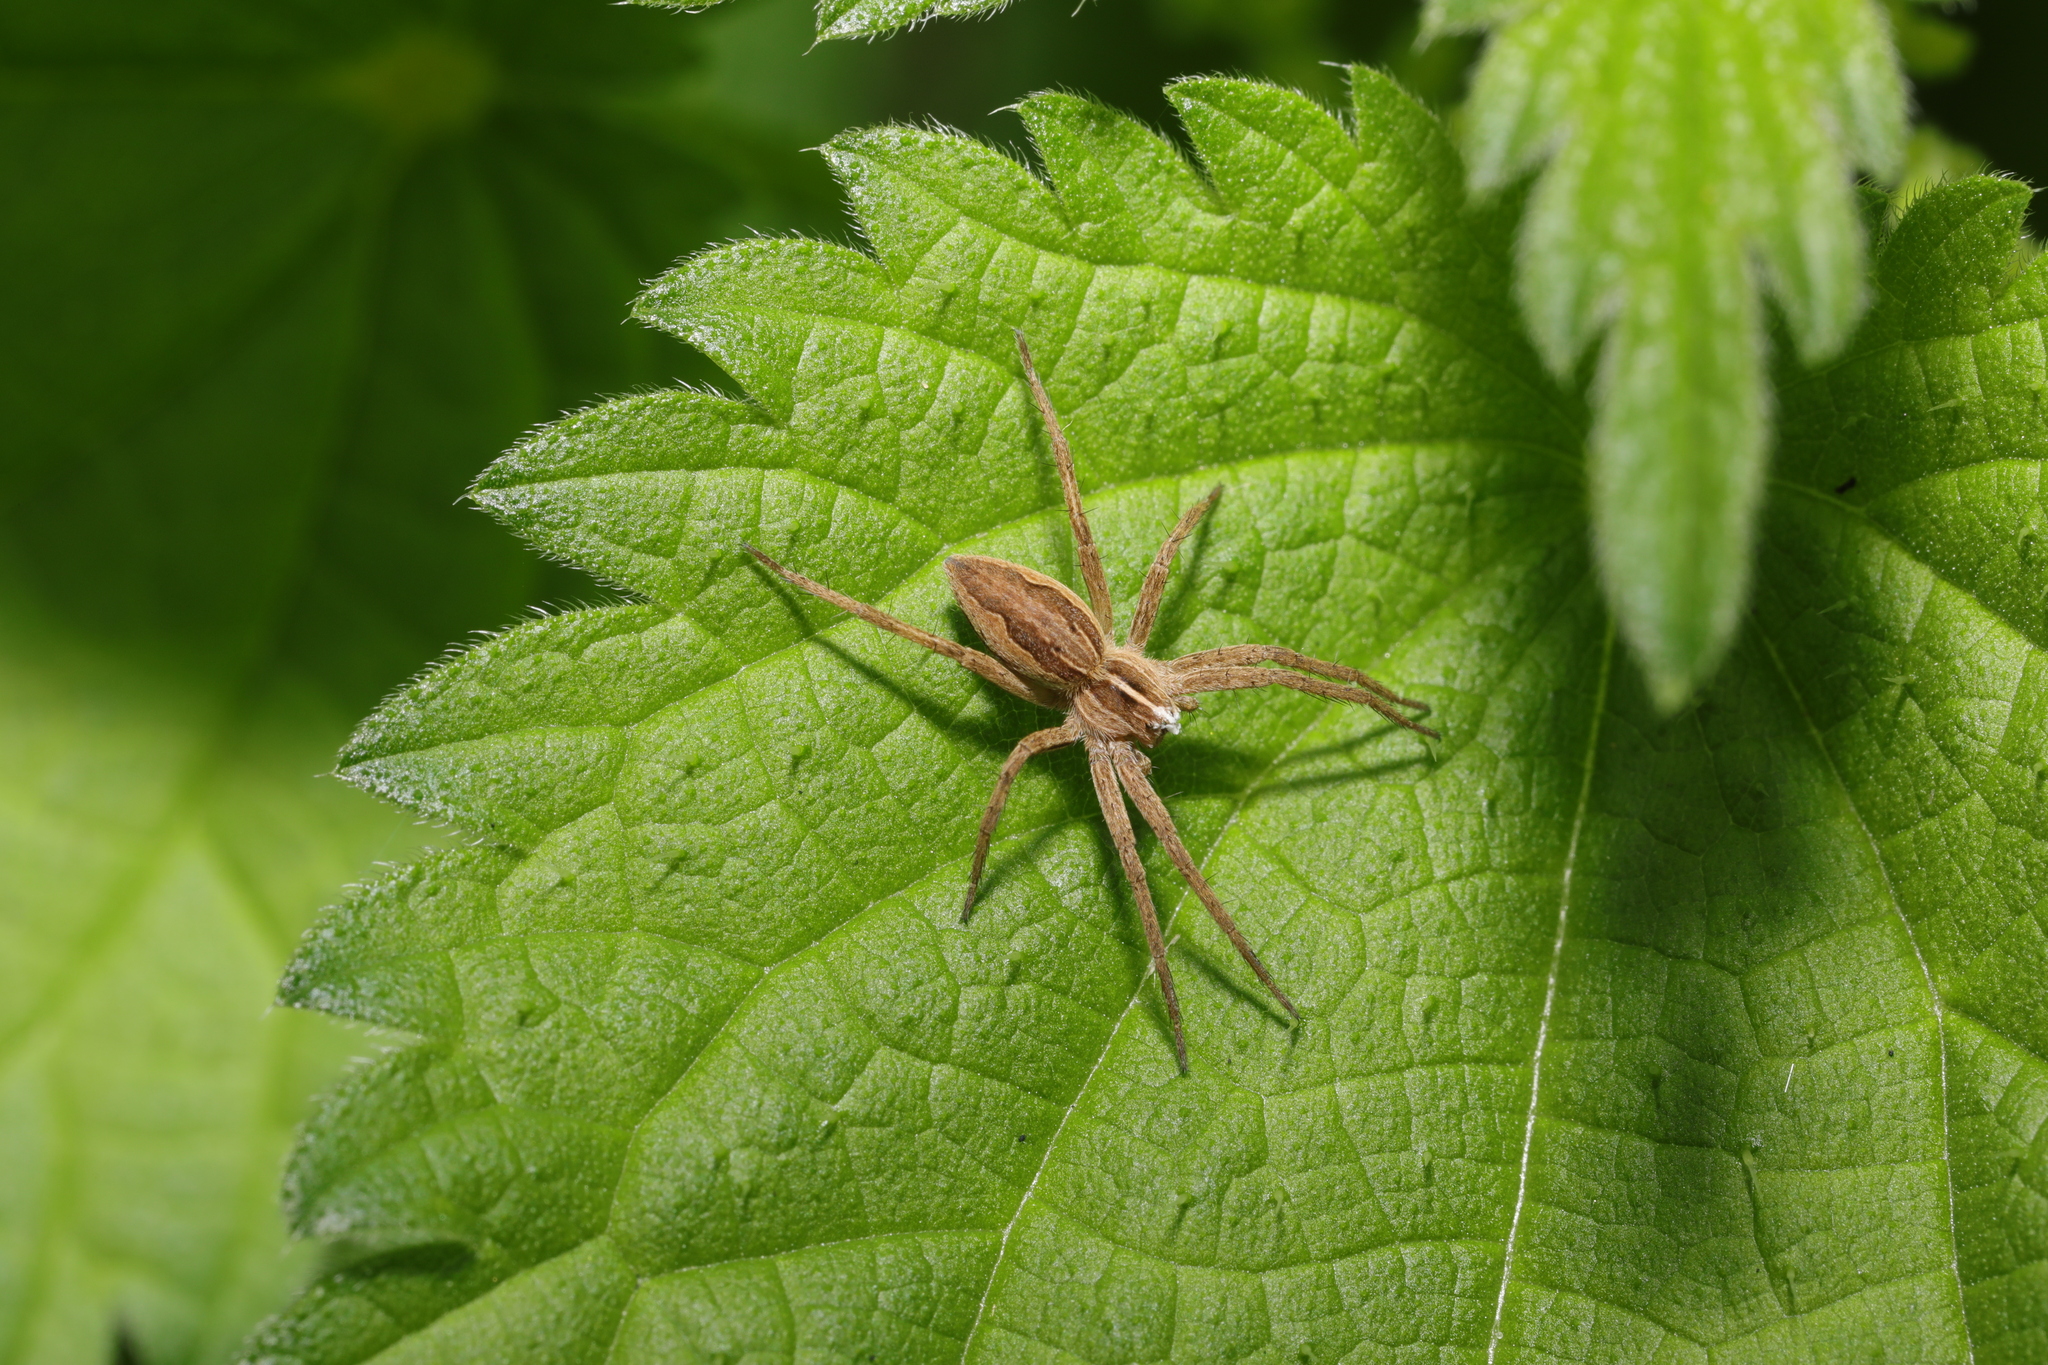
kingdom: Animalia
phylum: Arthropoda
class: Arachnida
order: Araneae
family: Pisauridae
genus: Pisaura
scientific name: Pisaura mirabilis
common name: Tent spider
